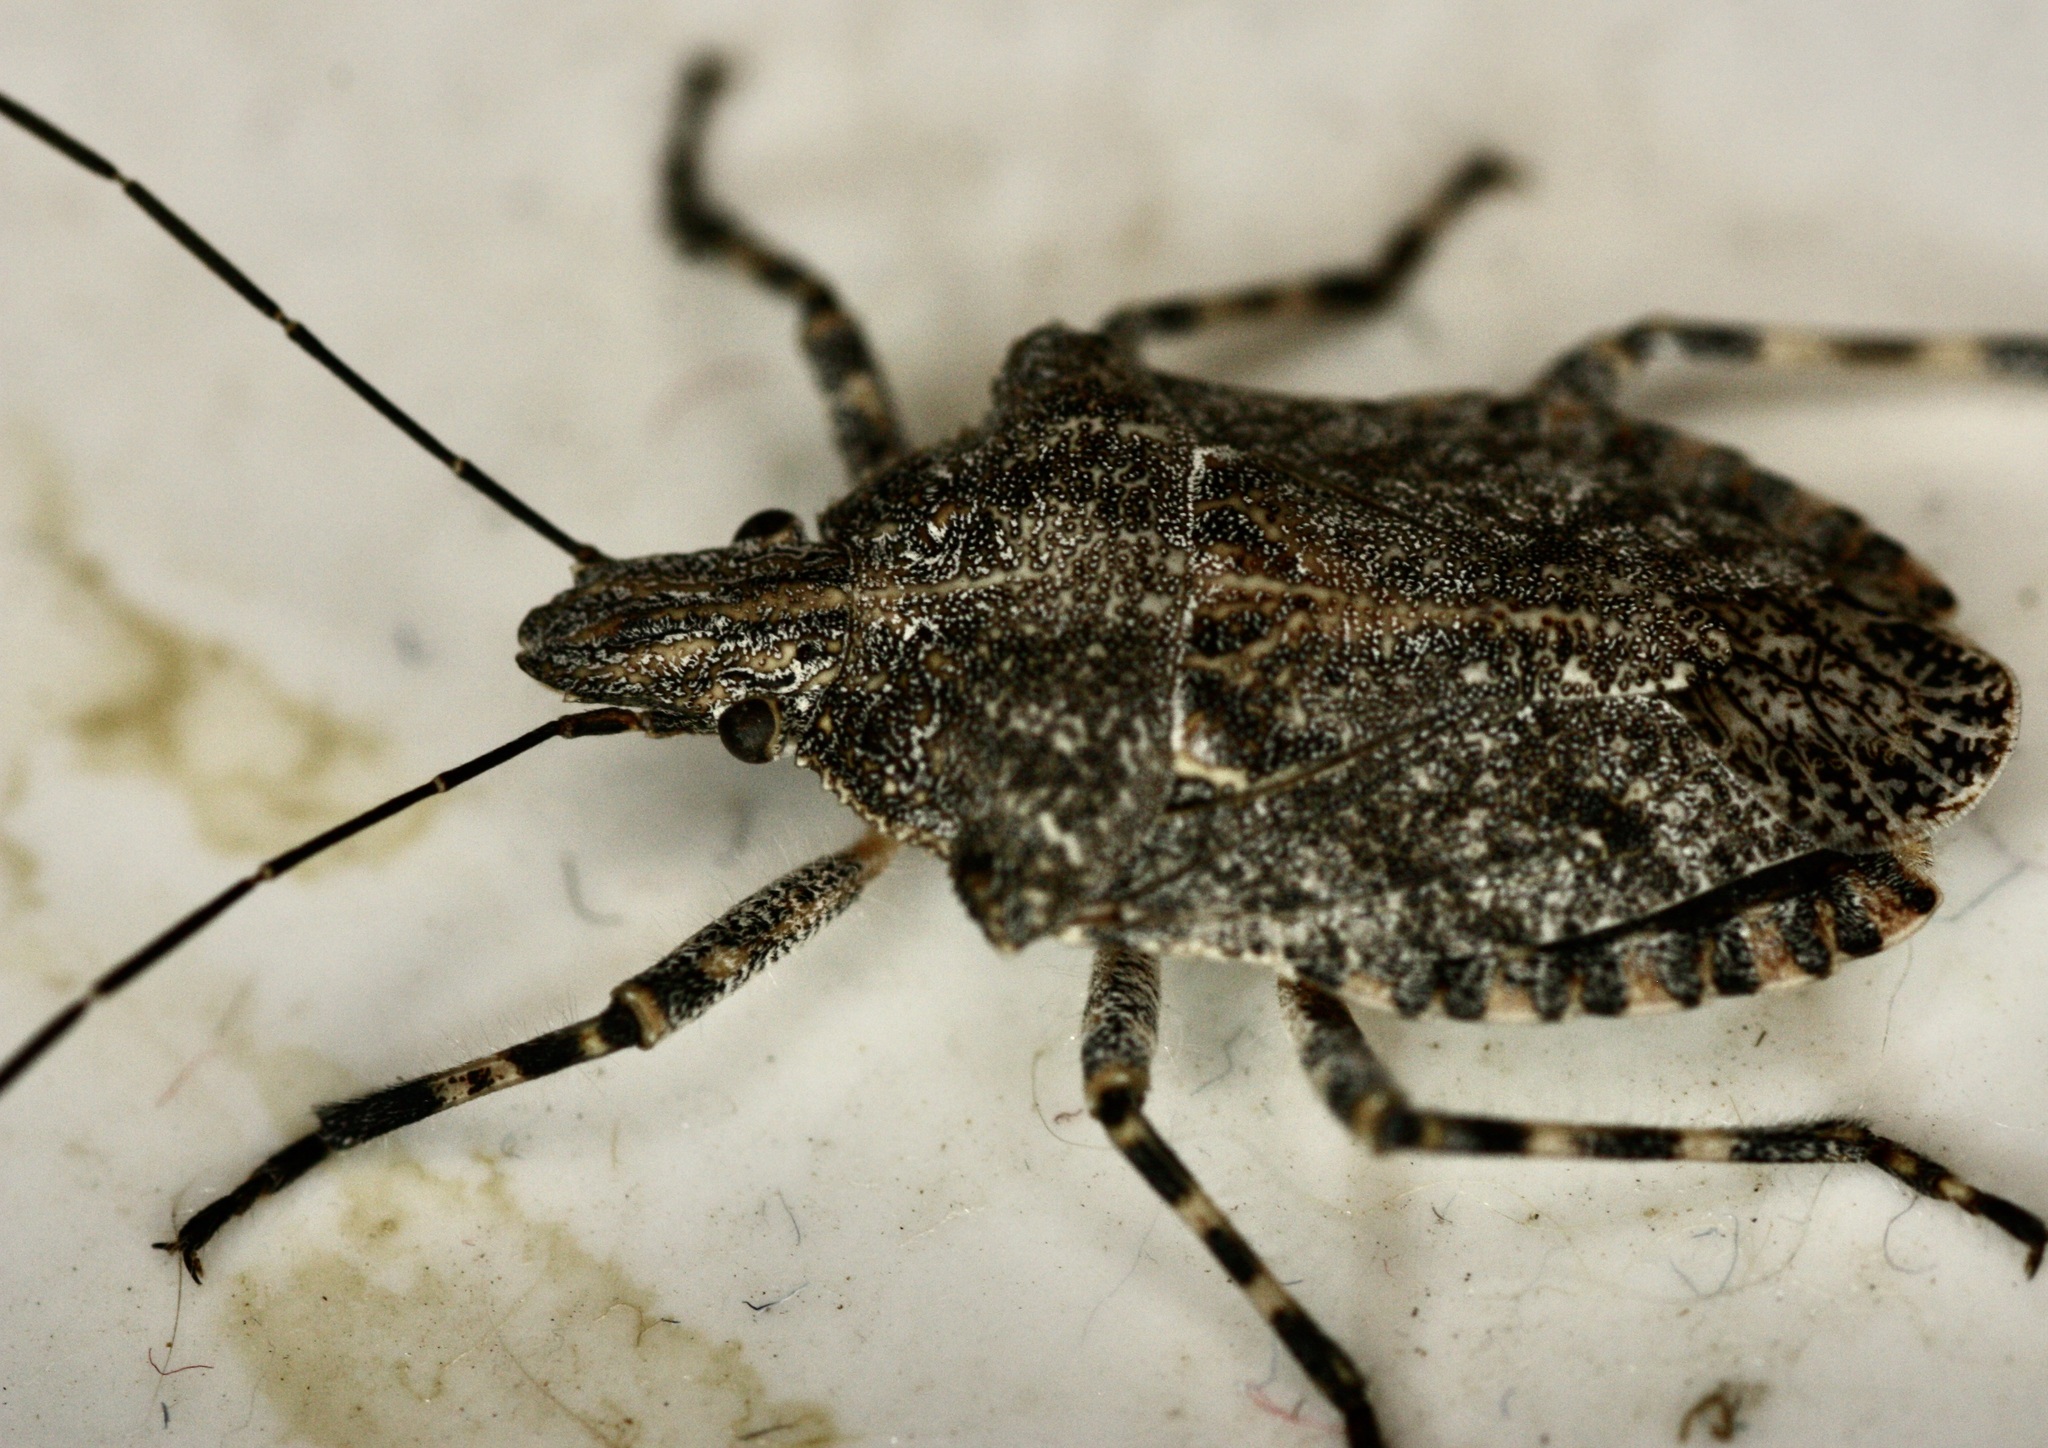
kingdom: Animalia
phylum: Arthropoda
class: Insecta
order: Hemiptera
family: Pentatomidae
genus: Brochymena
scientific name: Brochymena sulcata
